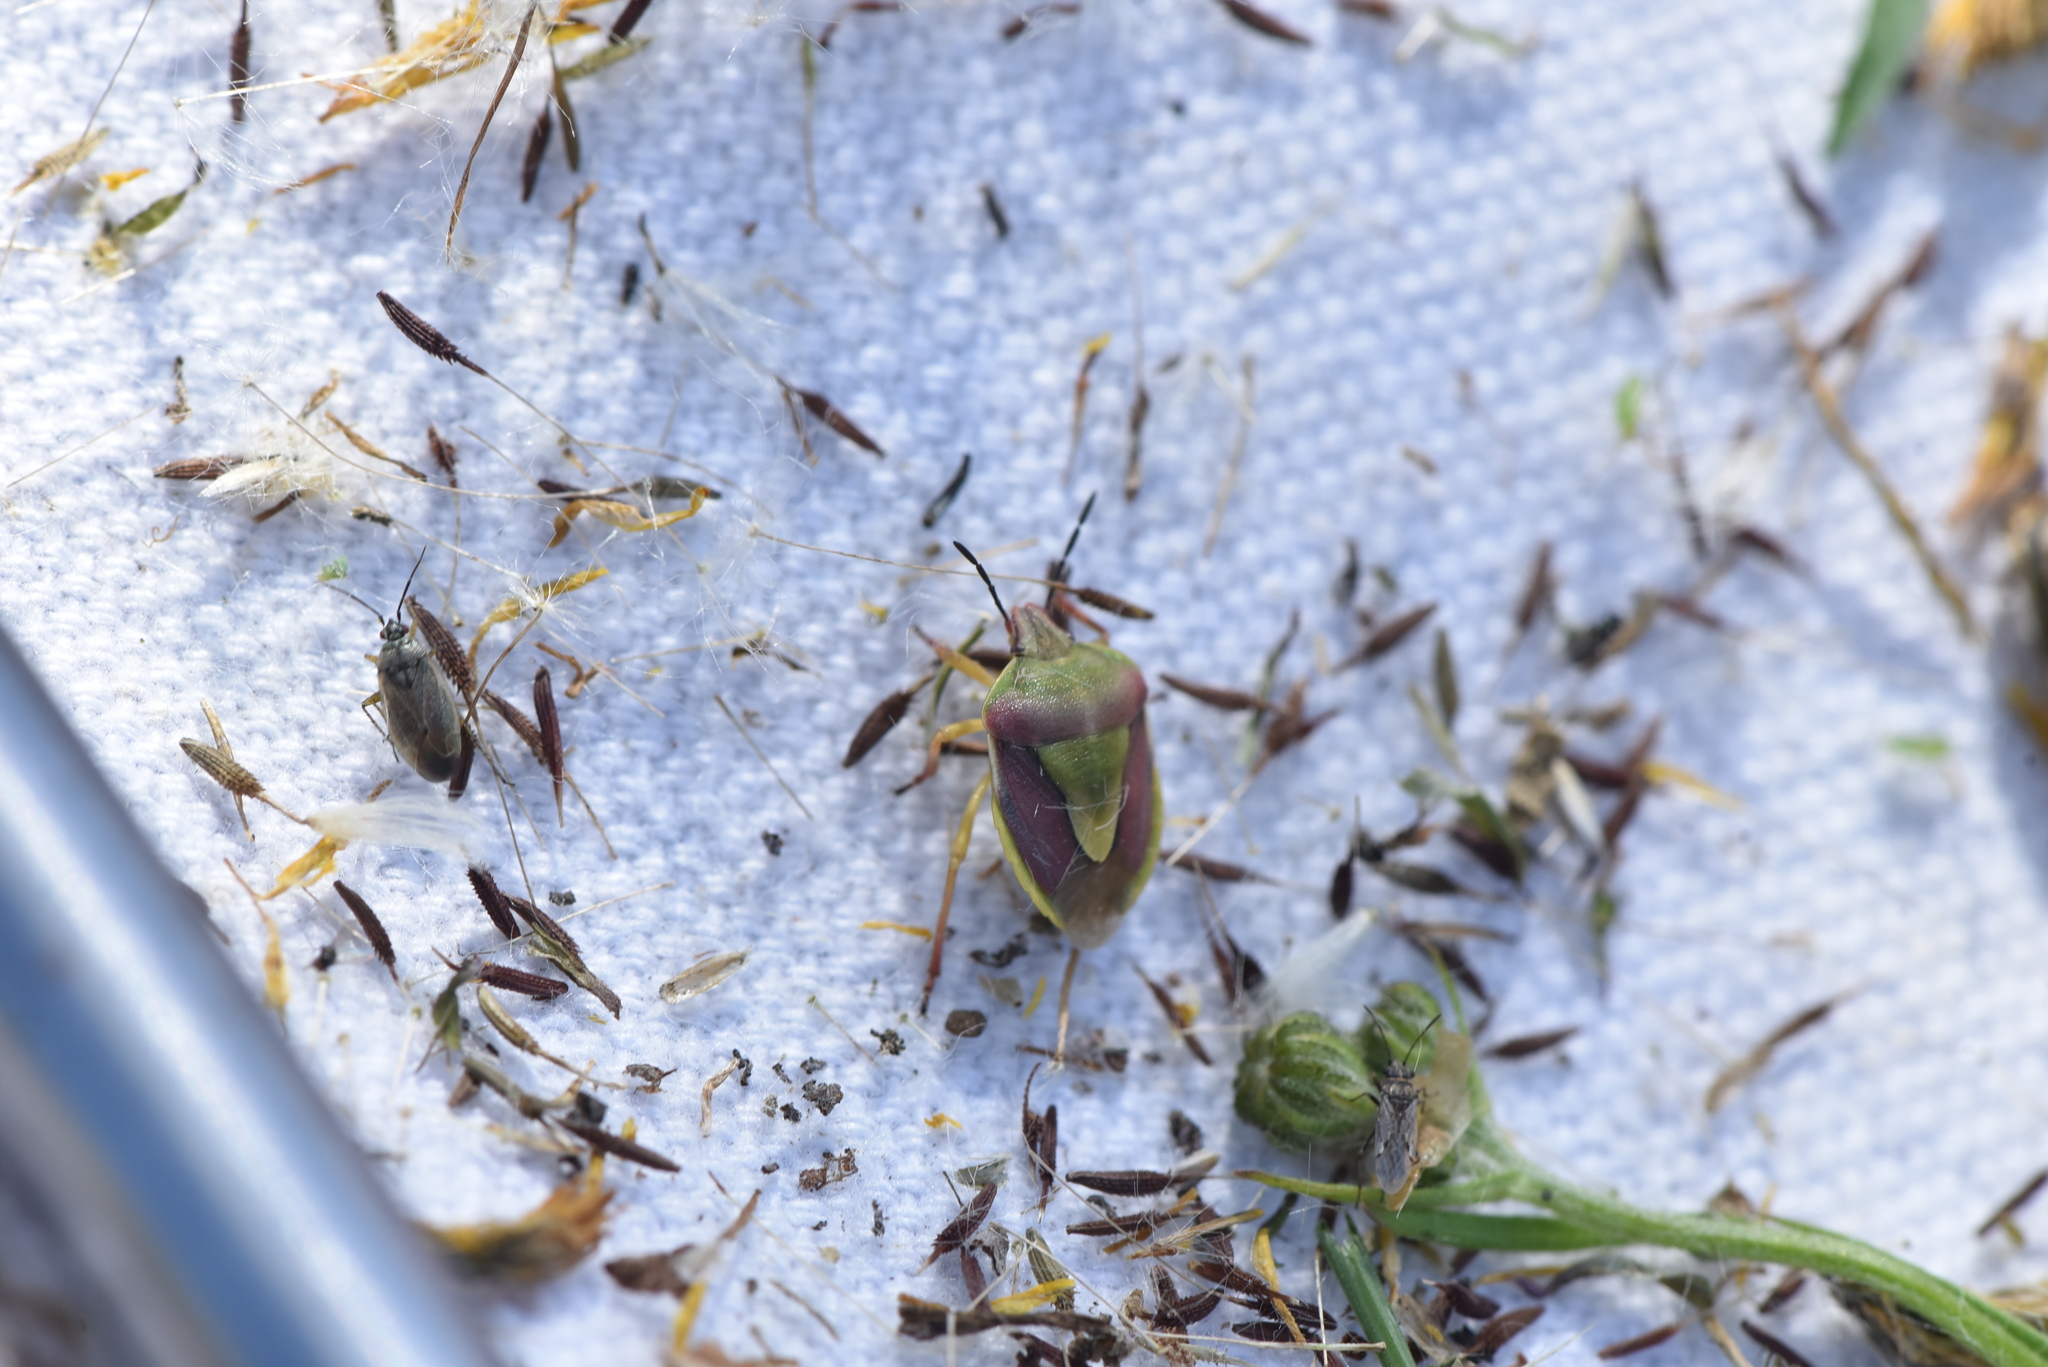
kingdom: Animalia
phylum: Arthropoda
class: Insecta
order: Hemiptera
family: Pentatomidae
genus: Antheminia
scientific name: Antheminia
